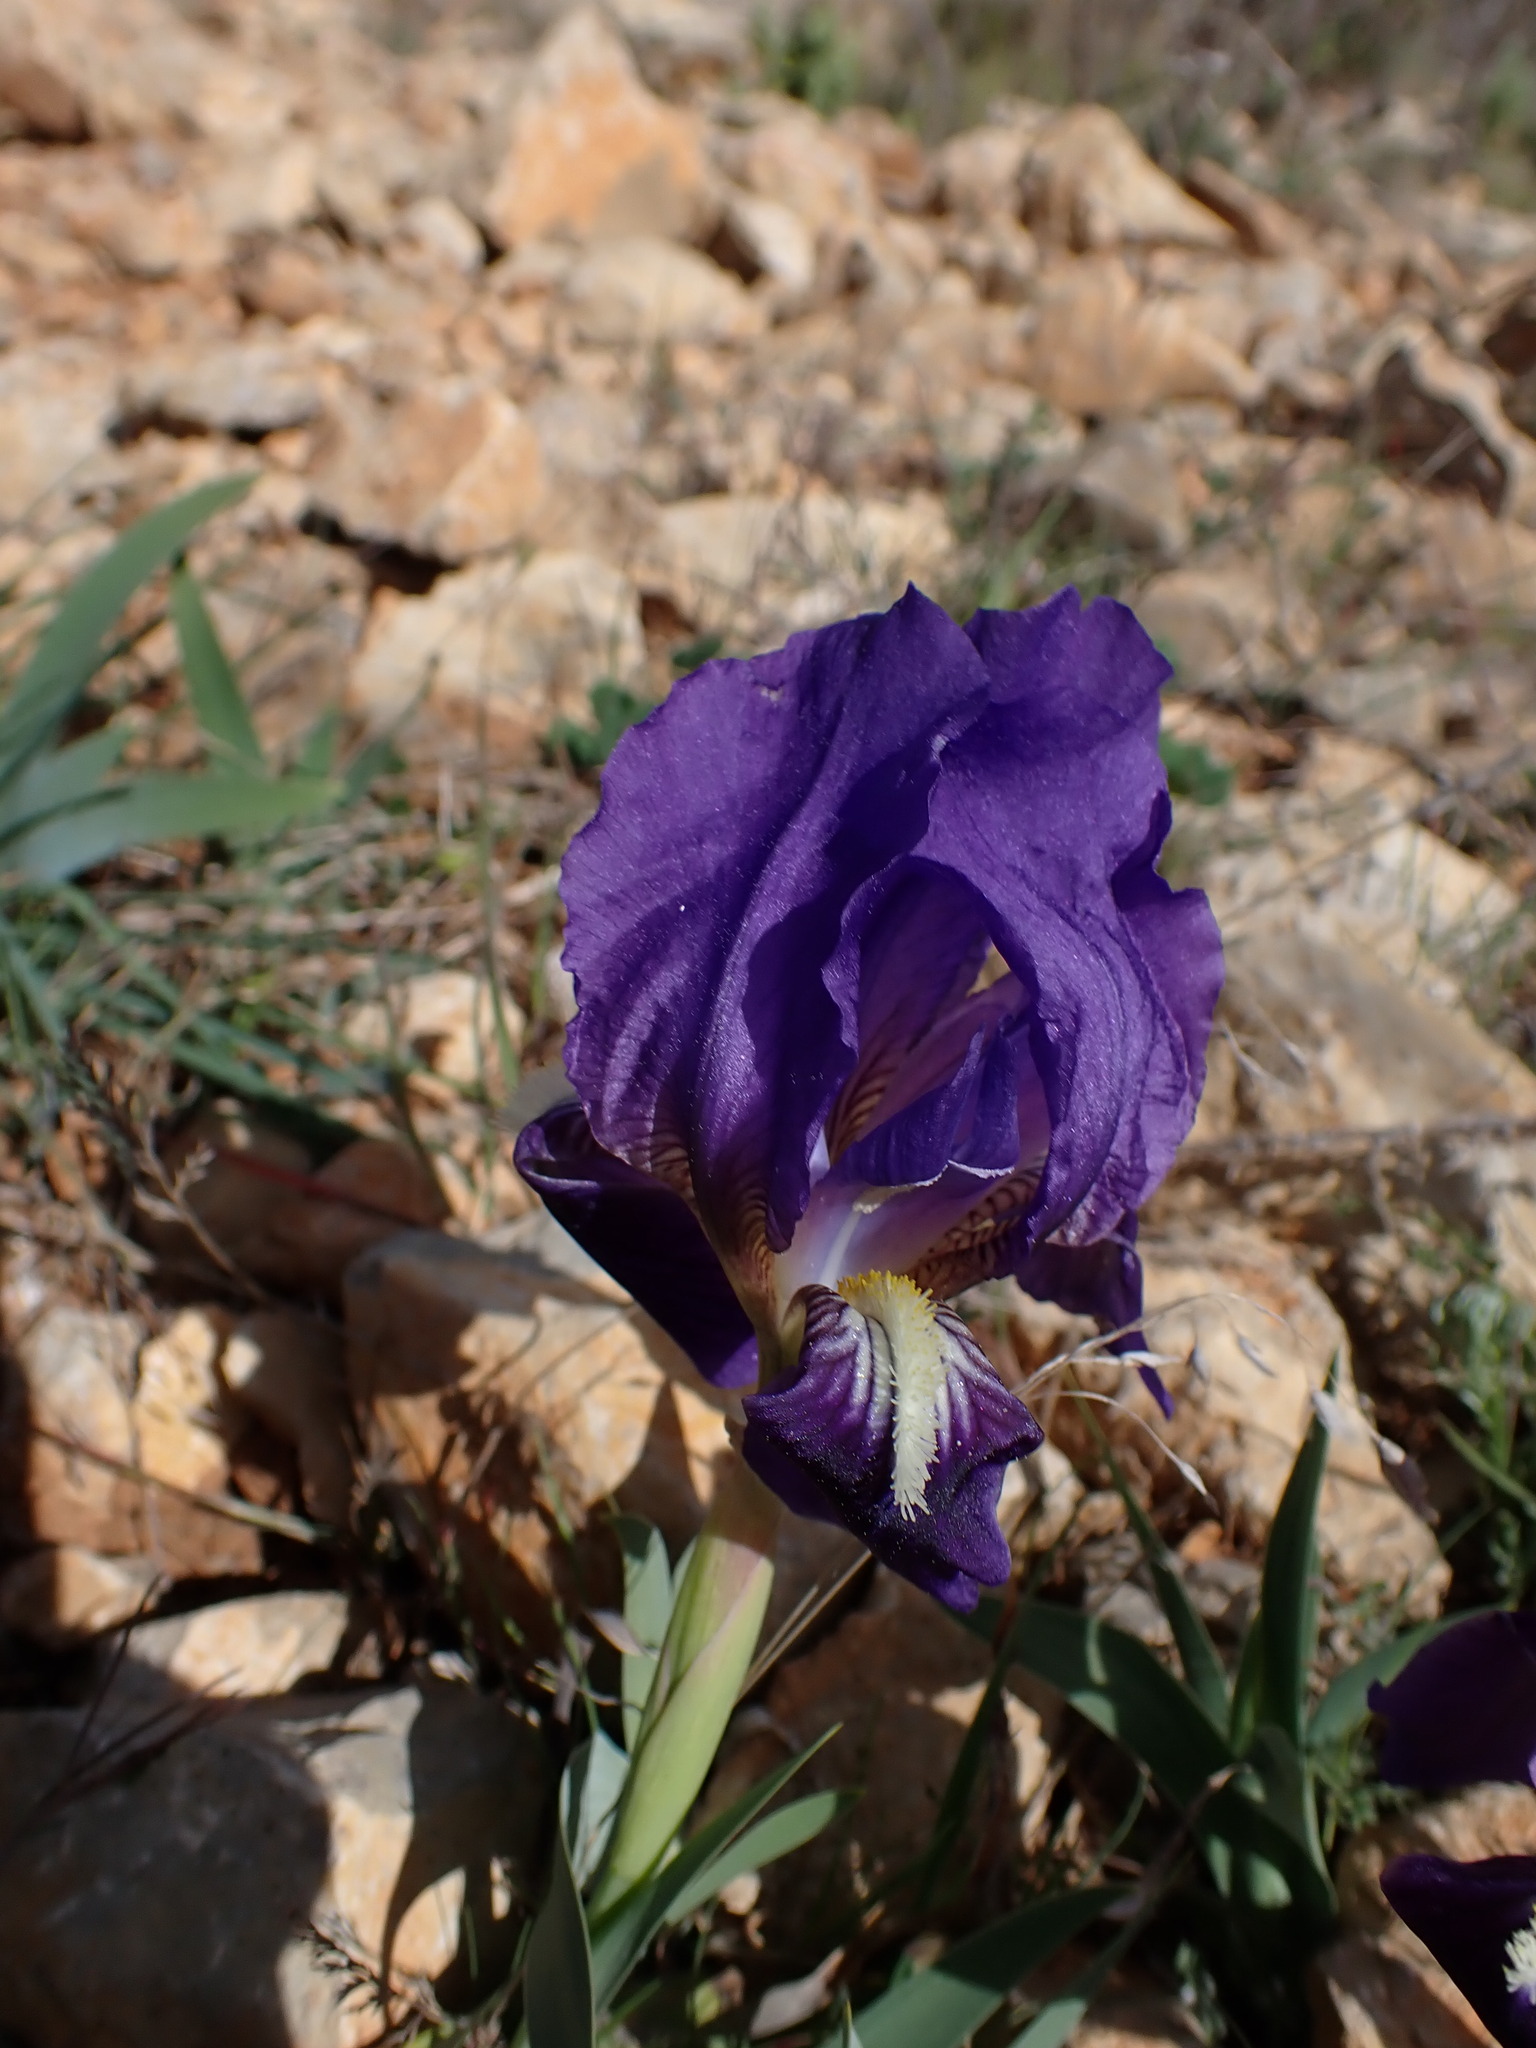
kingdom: Plantae
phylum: Tracheophyta
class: Liliopsida
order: Asparagales
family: Iridaceae
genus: Iris
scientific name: Iris lutescens
